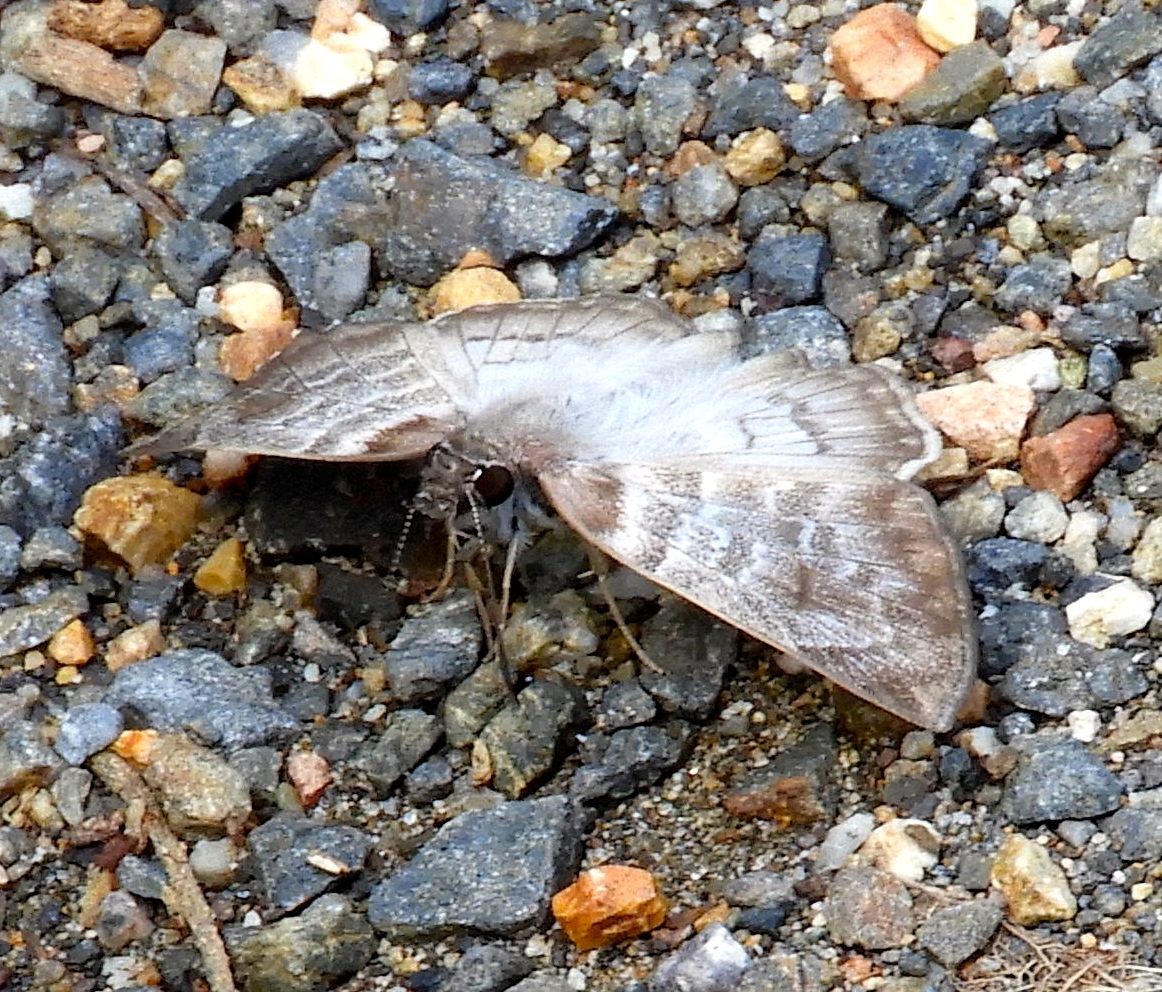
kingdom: Animalia
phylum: Arthropoda
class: Insecta
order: Lepidoptera
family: Hesperiidae
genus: Mylon
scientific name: Mylon pelopidas
